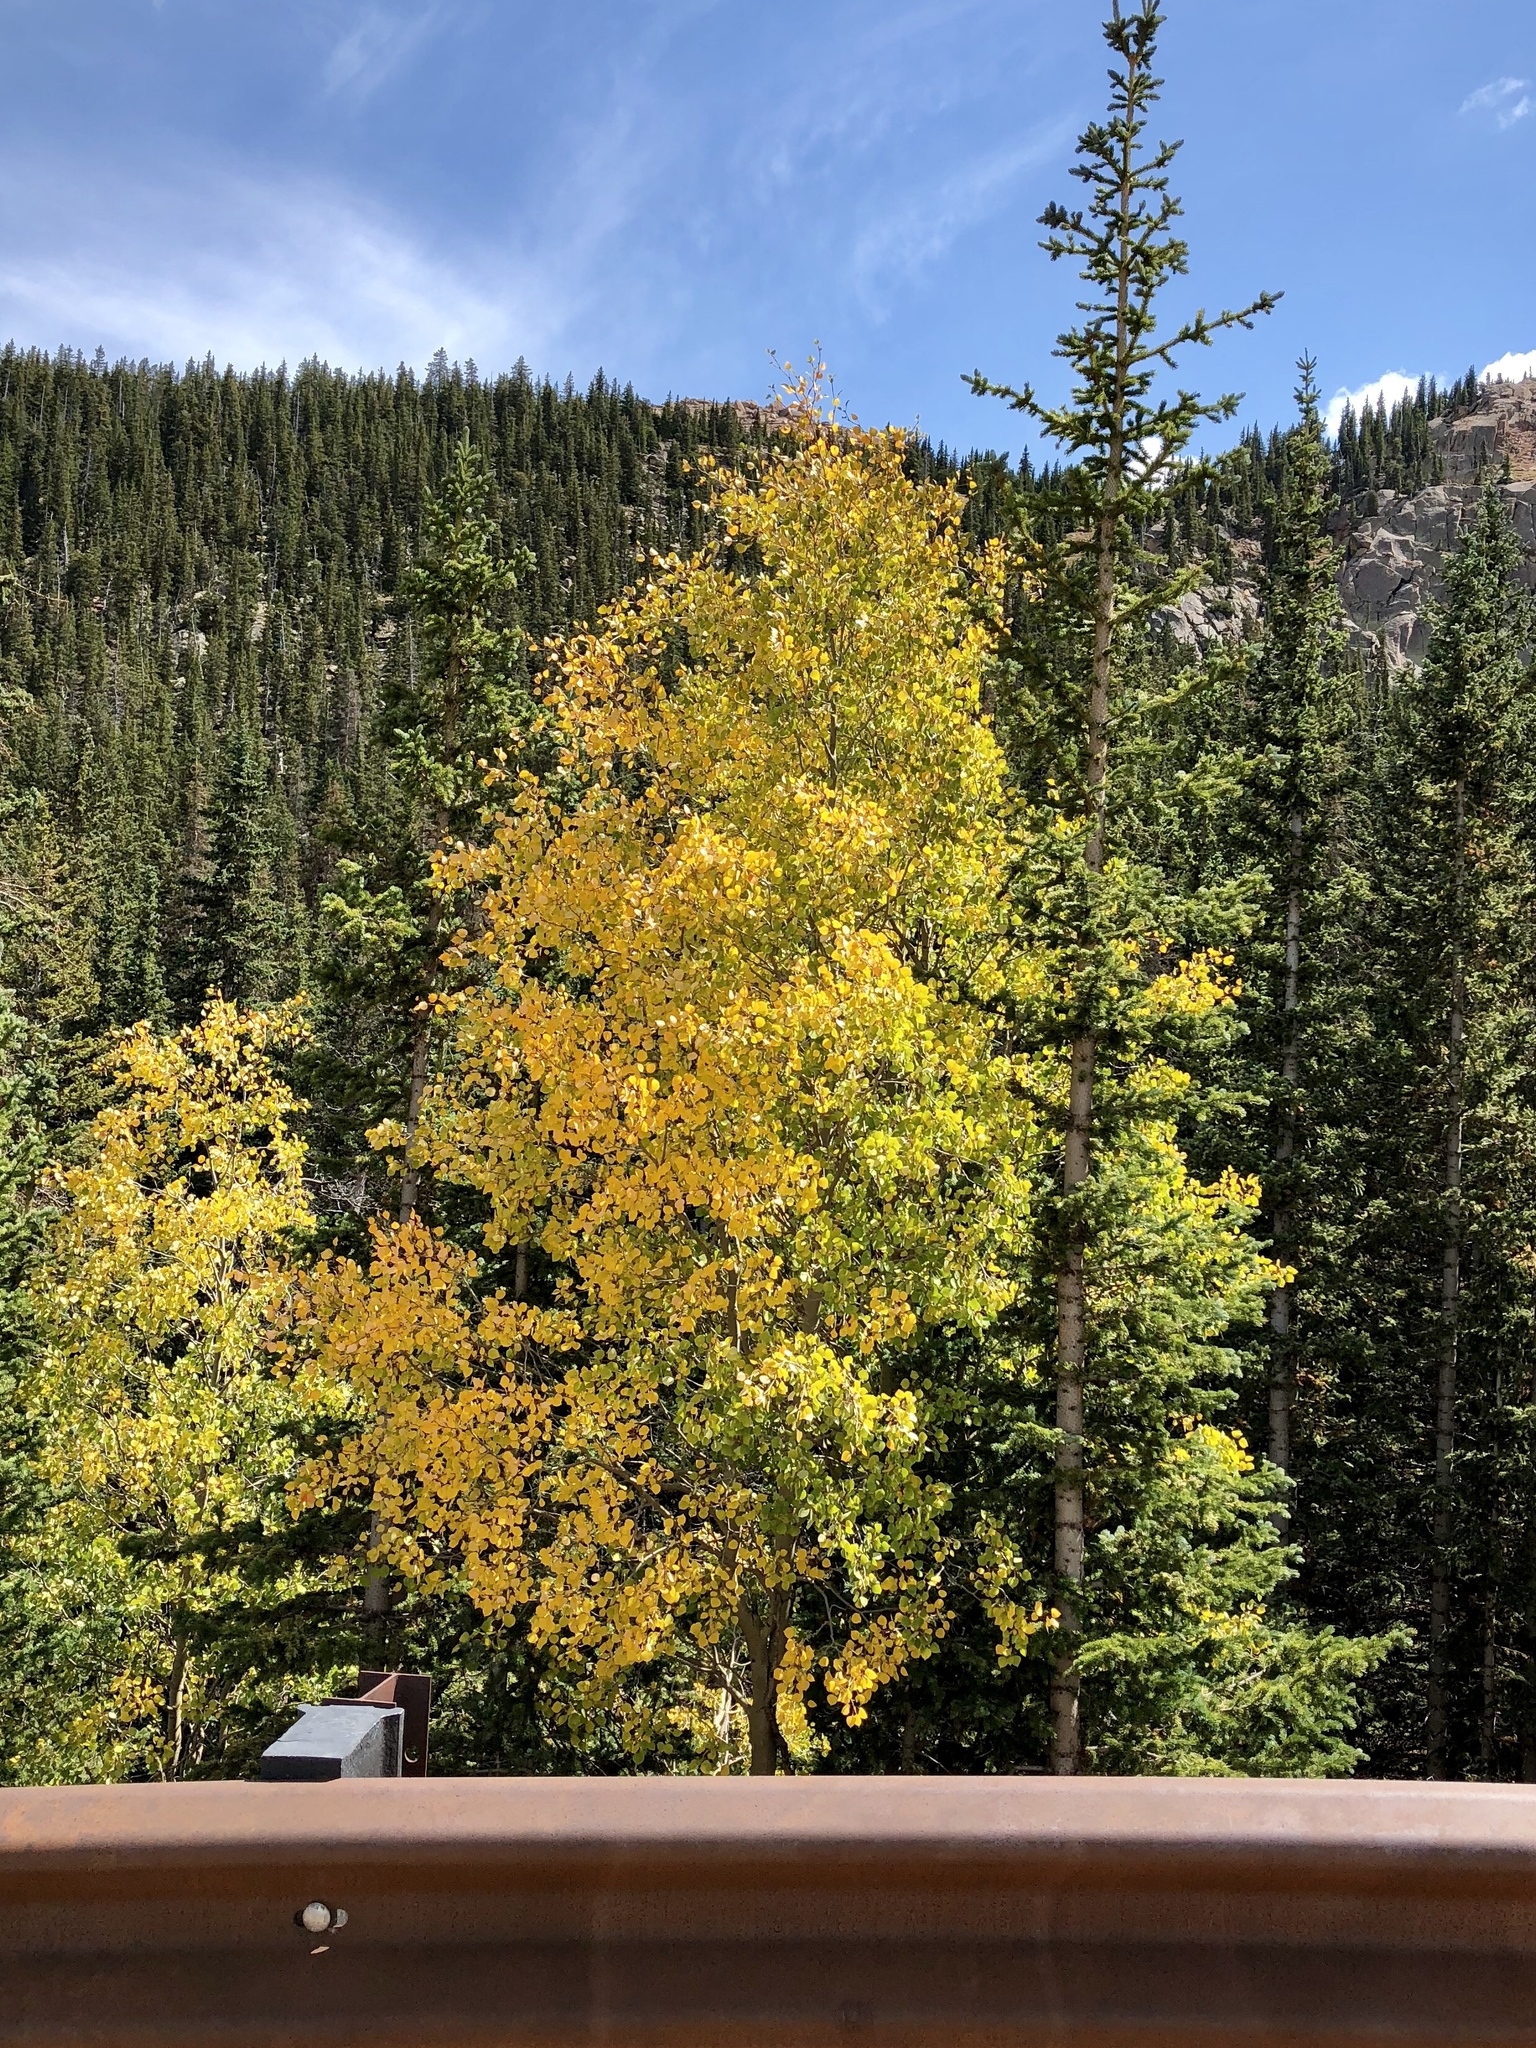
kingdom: Plantae
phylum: Tracheophyta
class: Magnoliopsida
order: Malpighiales
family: Salicaceae
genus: Populus
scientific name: Populus tremuloides
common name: Quaking aspen
